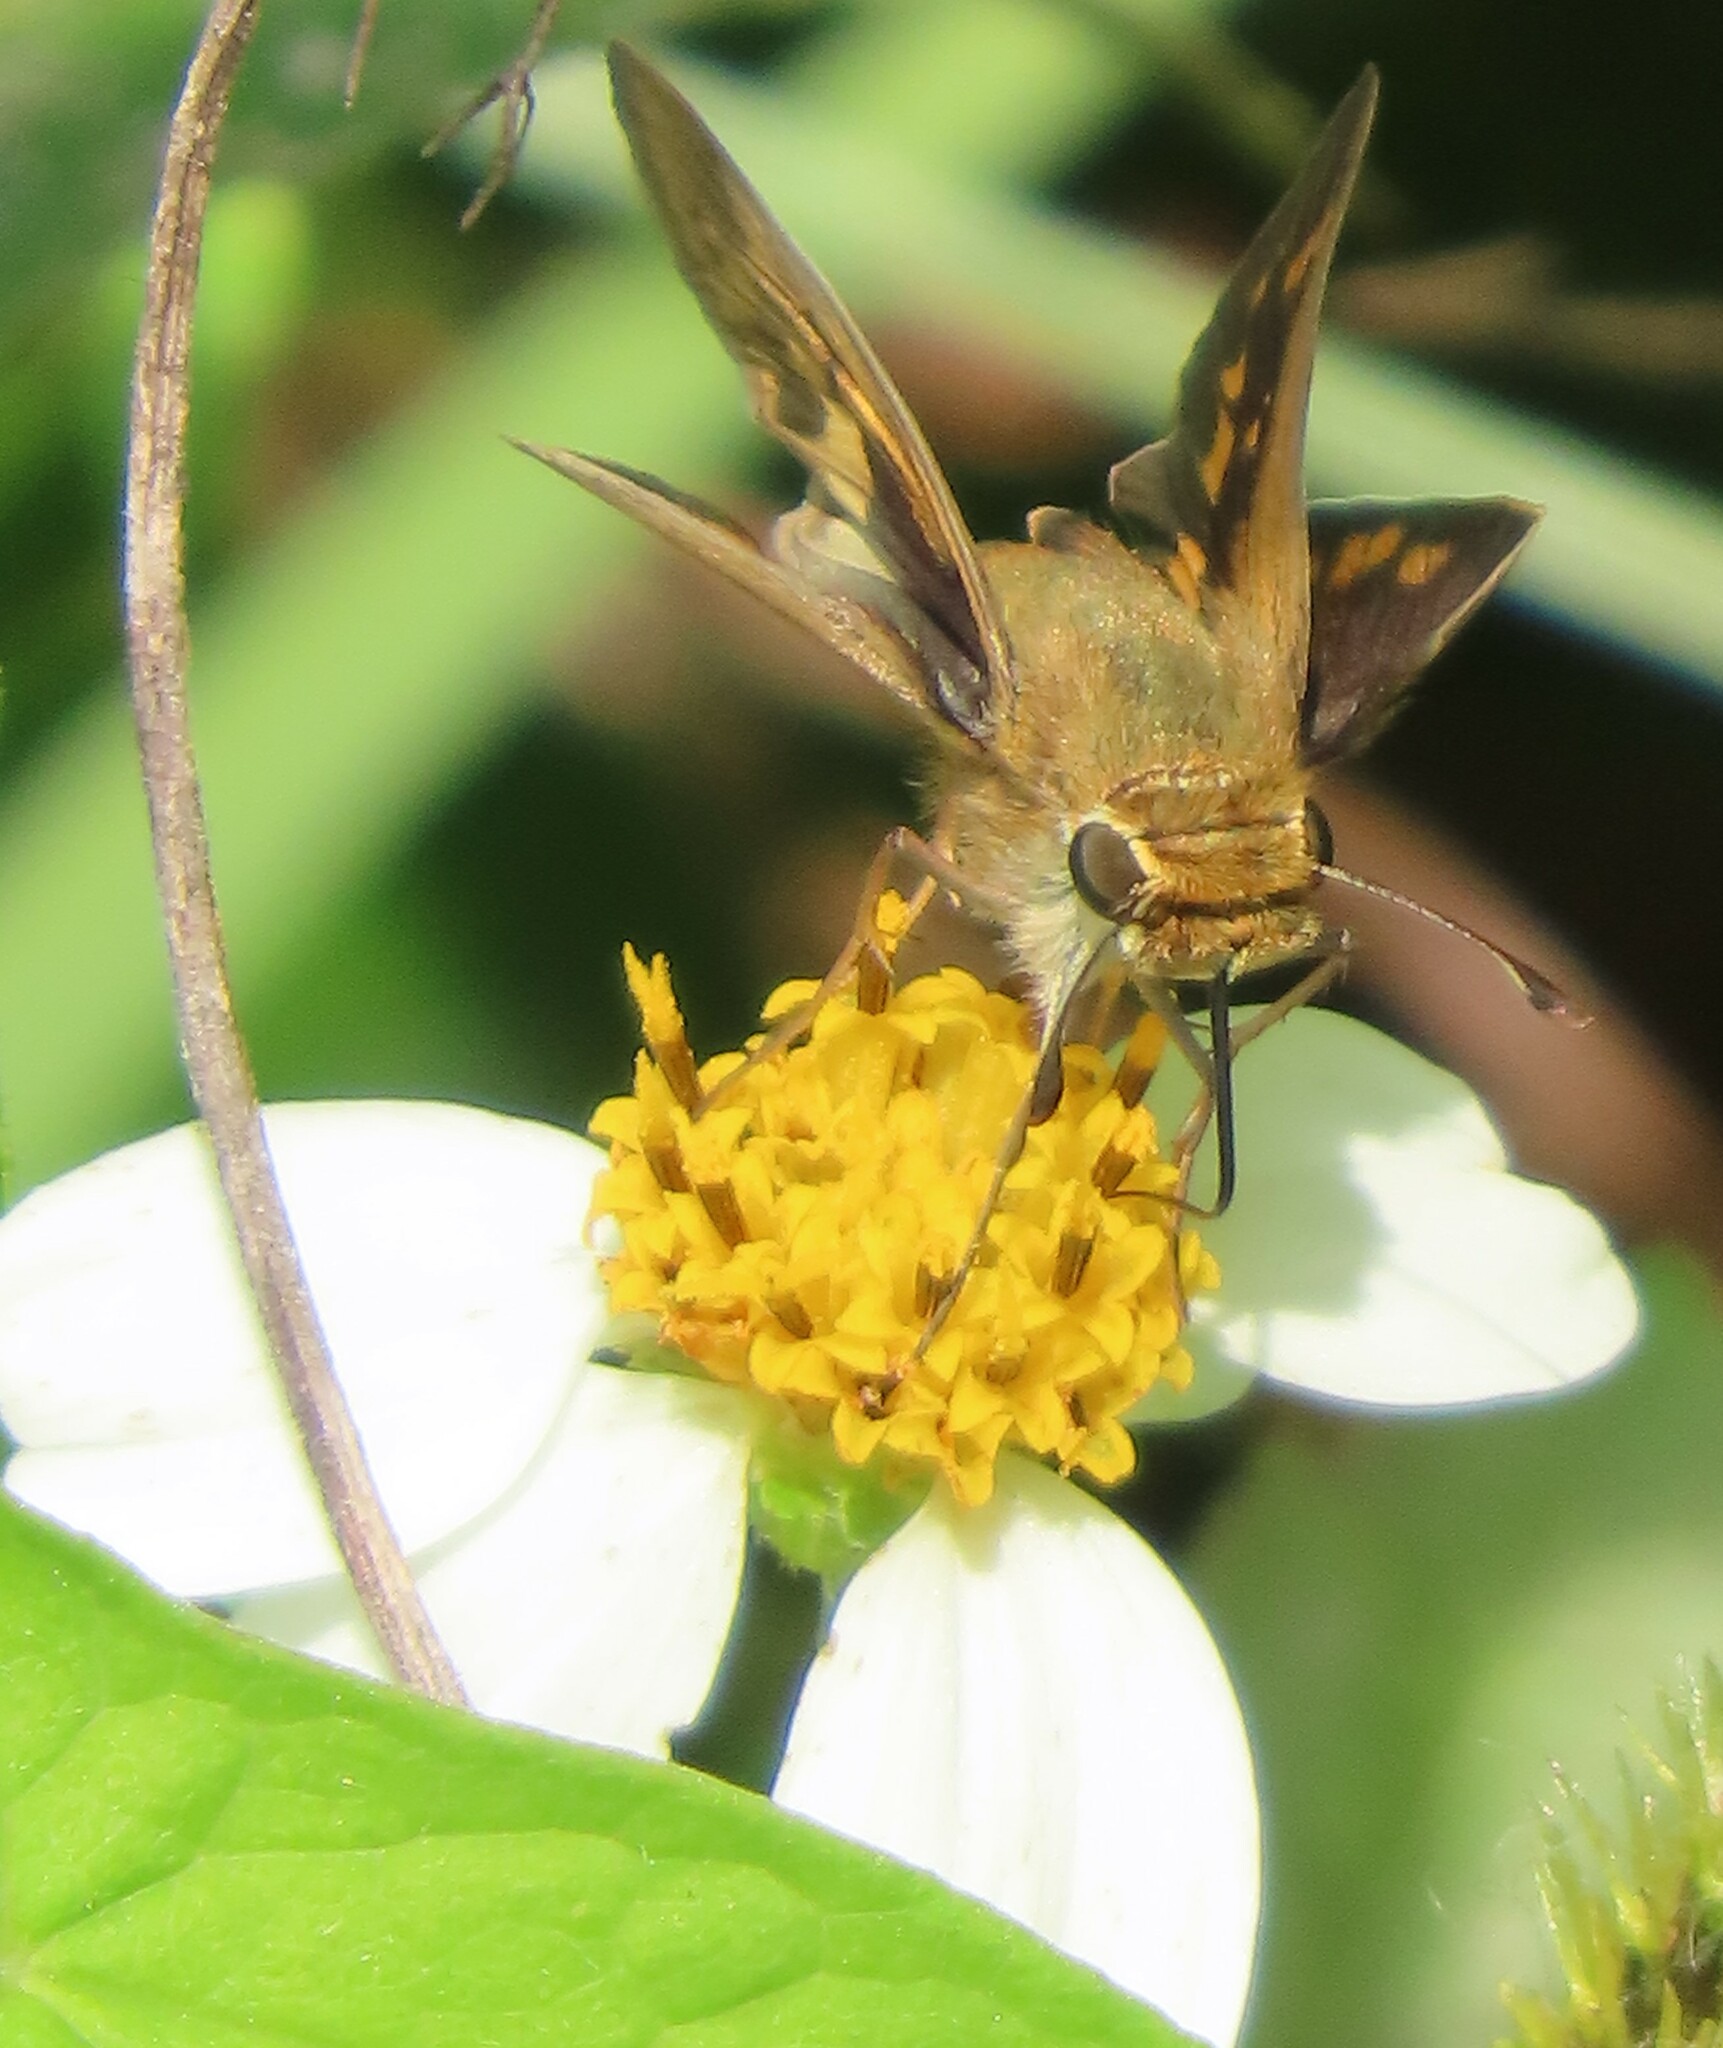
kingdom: Animalia
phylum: Arthropoda
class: Insecta
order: Lepidoptera
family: Hesperiidae
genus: Hylephila
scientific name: Hylephila phyleus
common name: Fiery skipper
